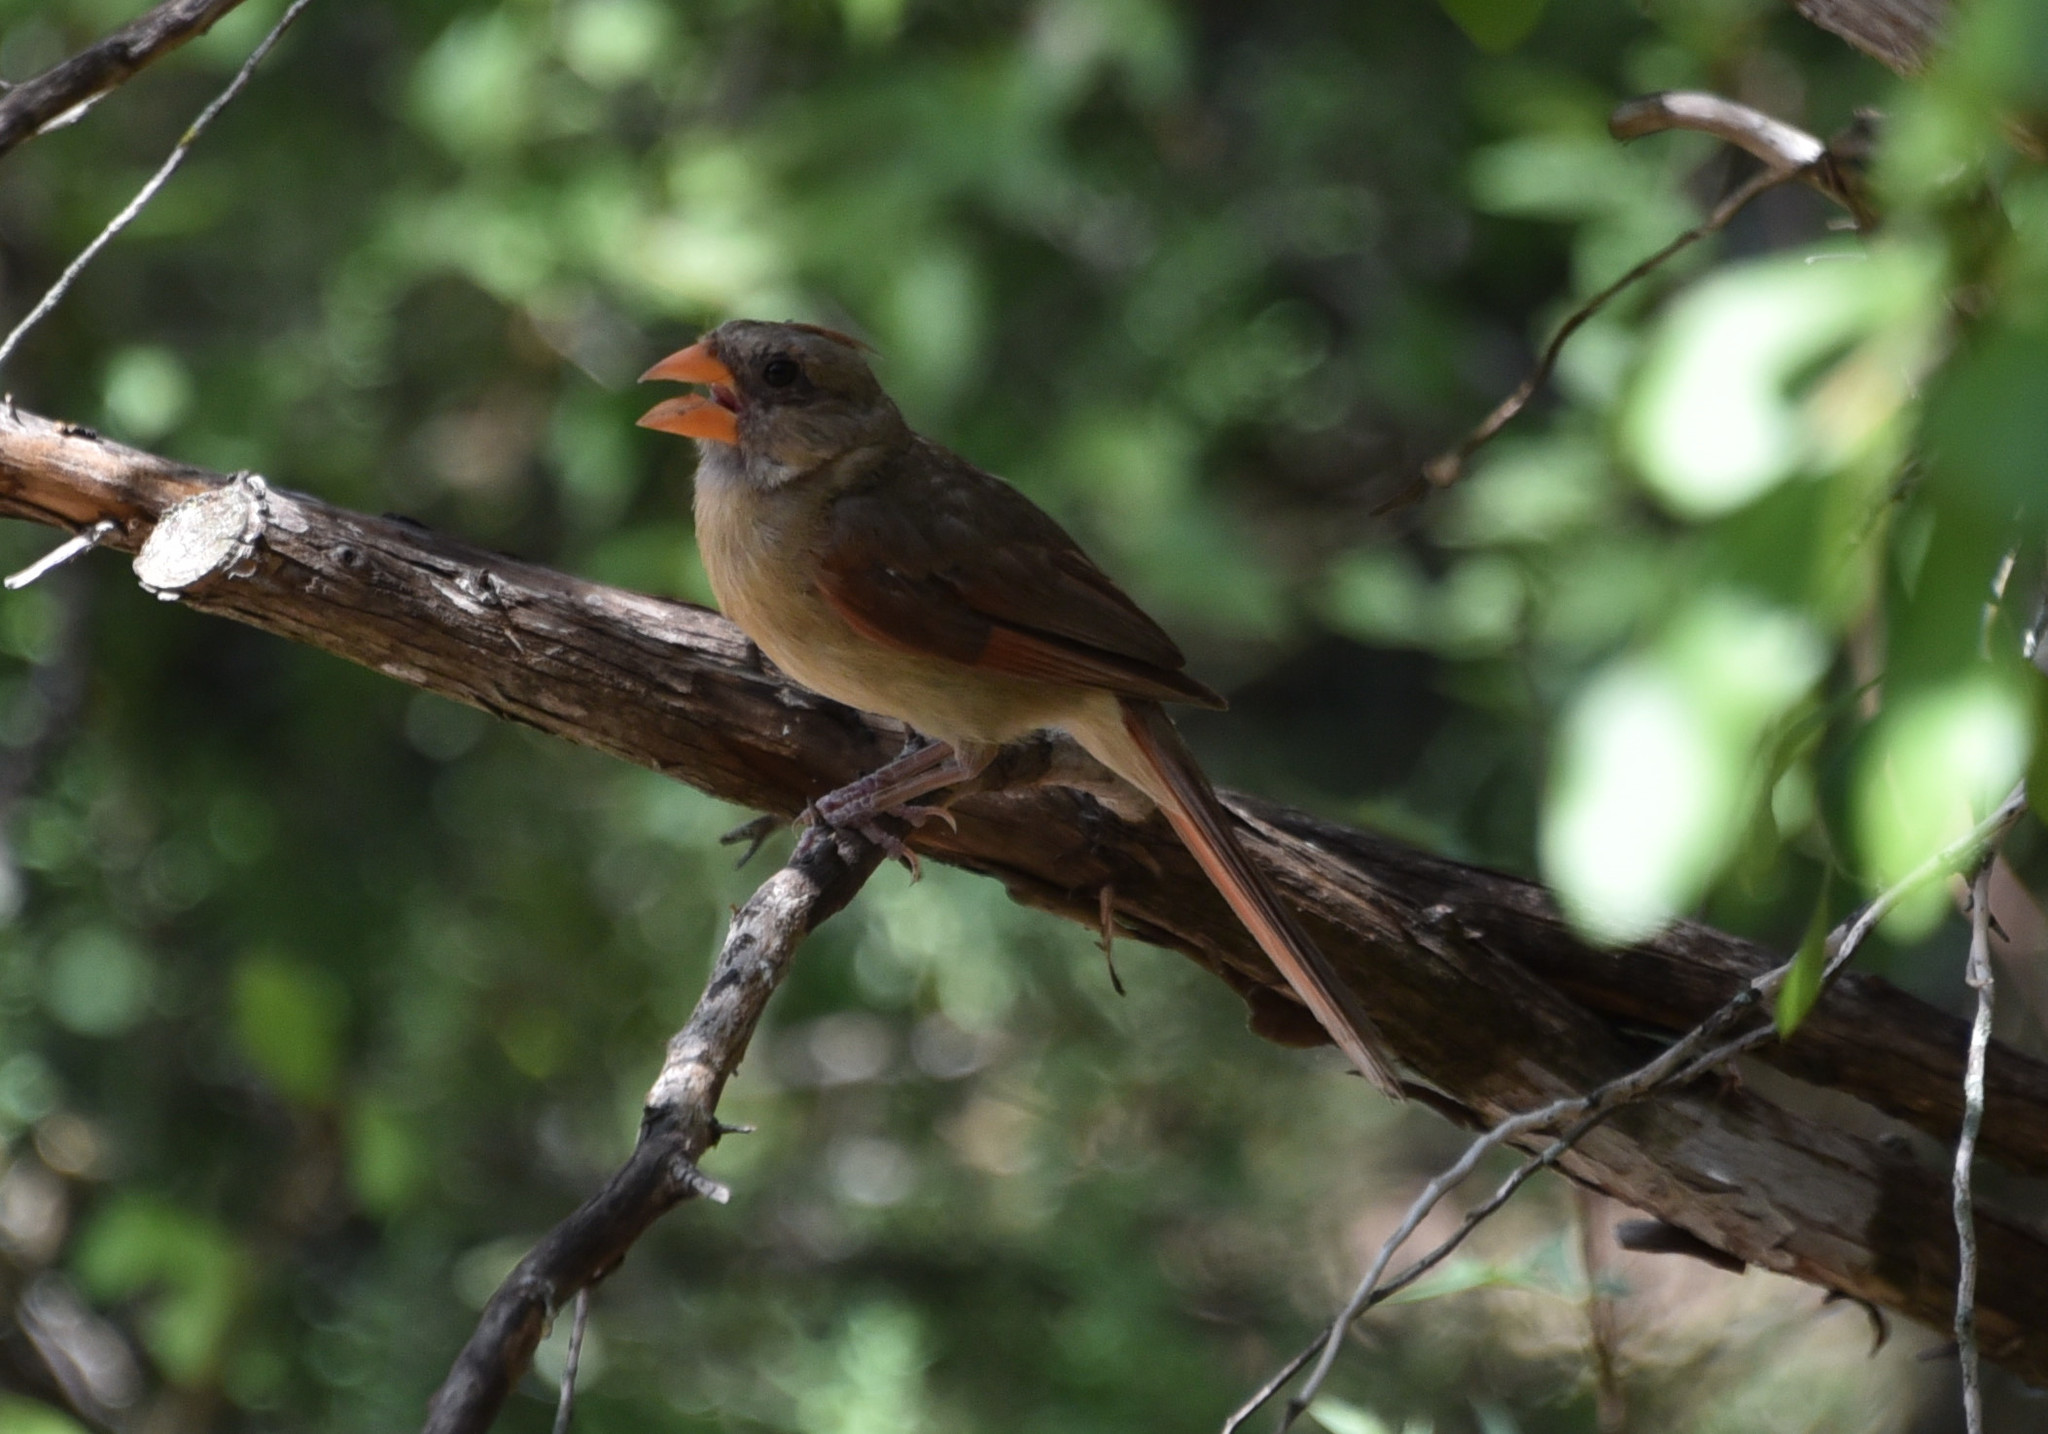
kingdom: Animalia
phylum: Chordata
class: Aves
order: Passeriformes
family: Cardinalidae
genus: Cardinalis
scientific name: Cardinalis cardinalis
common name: Northern cardinal
